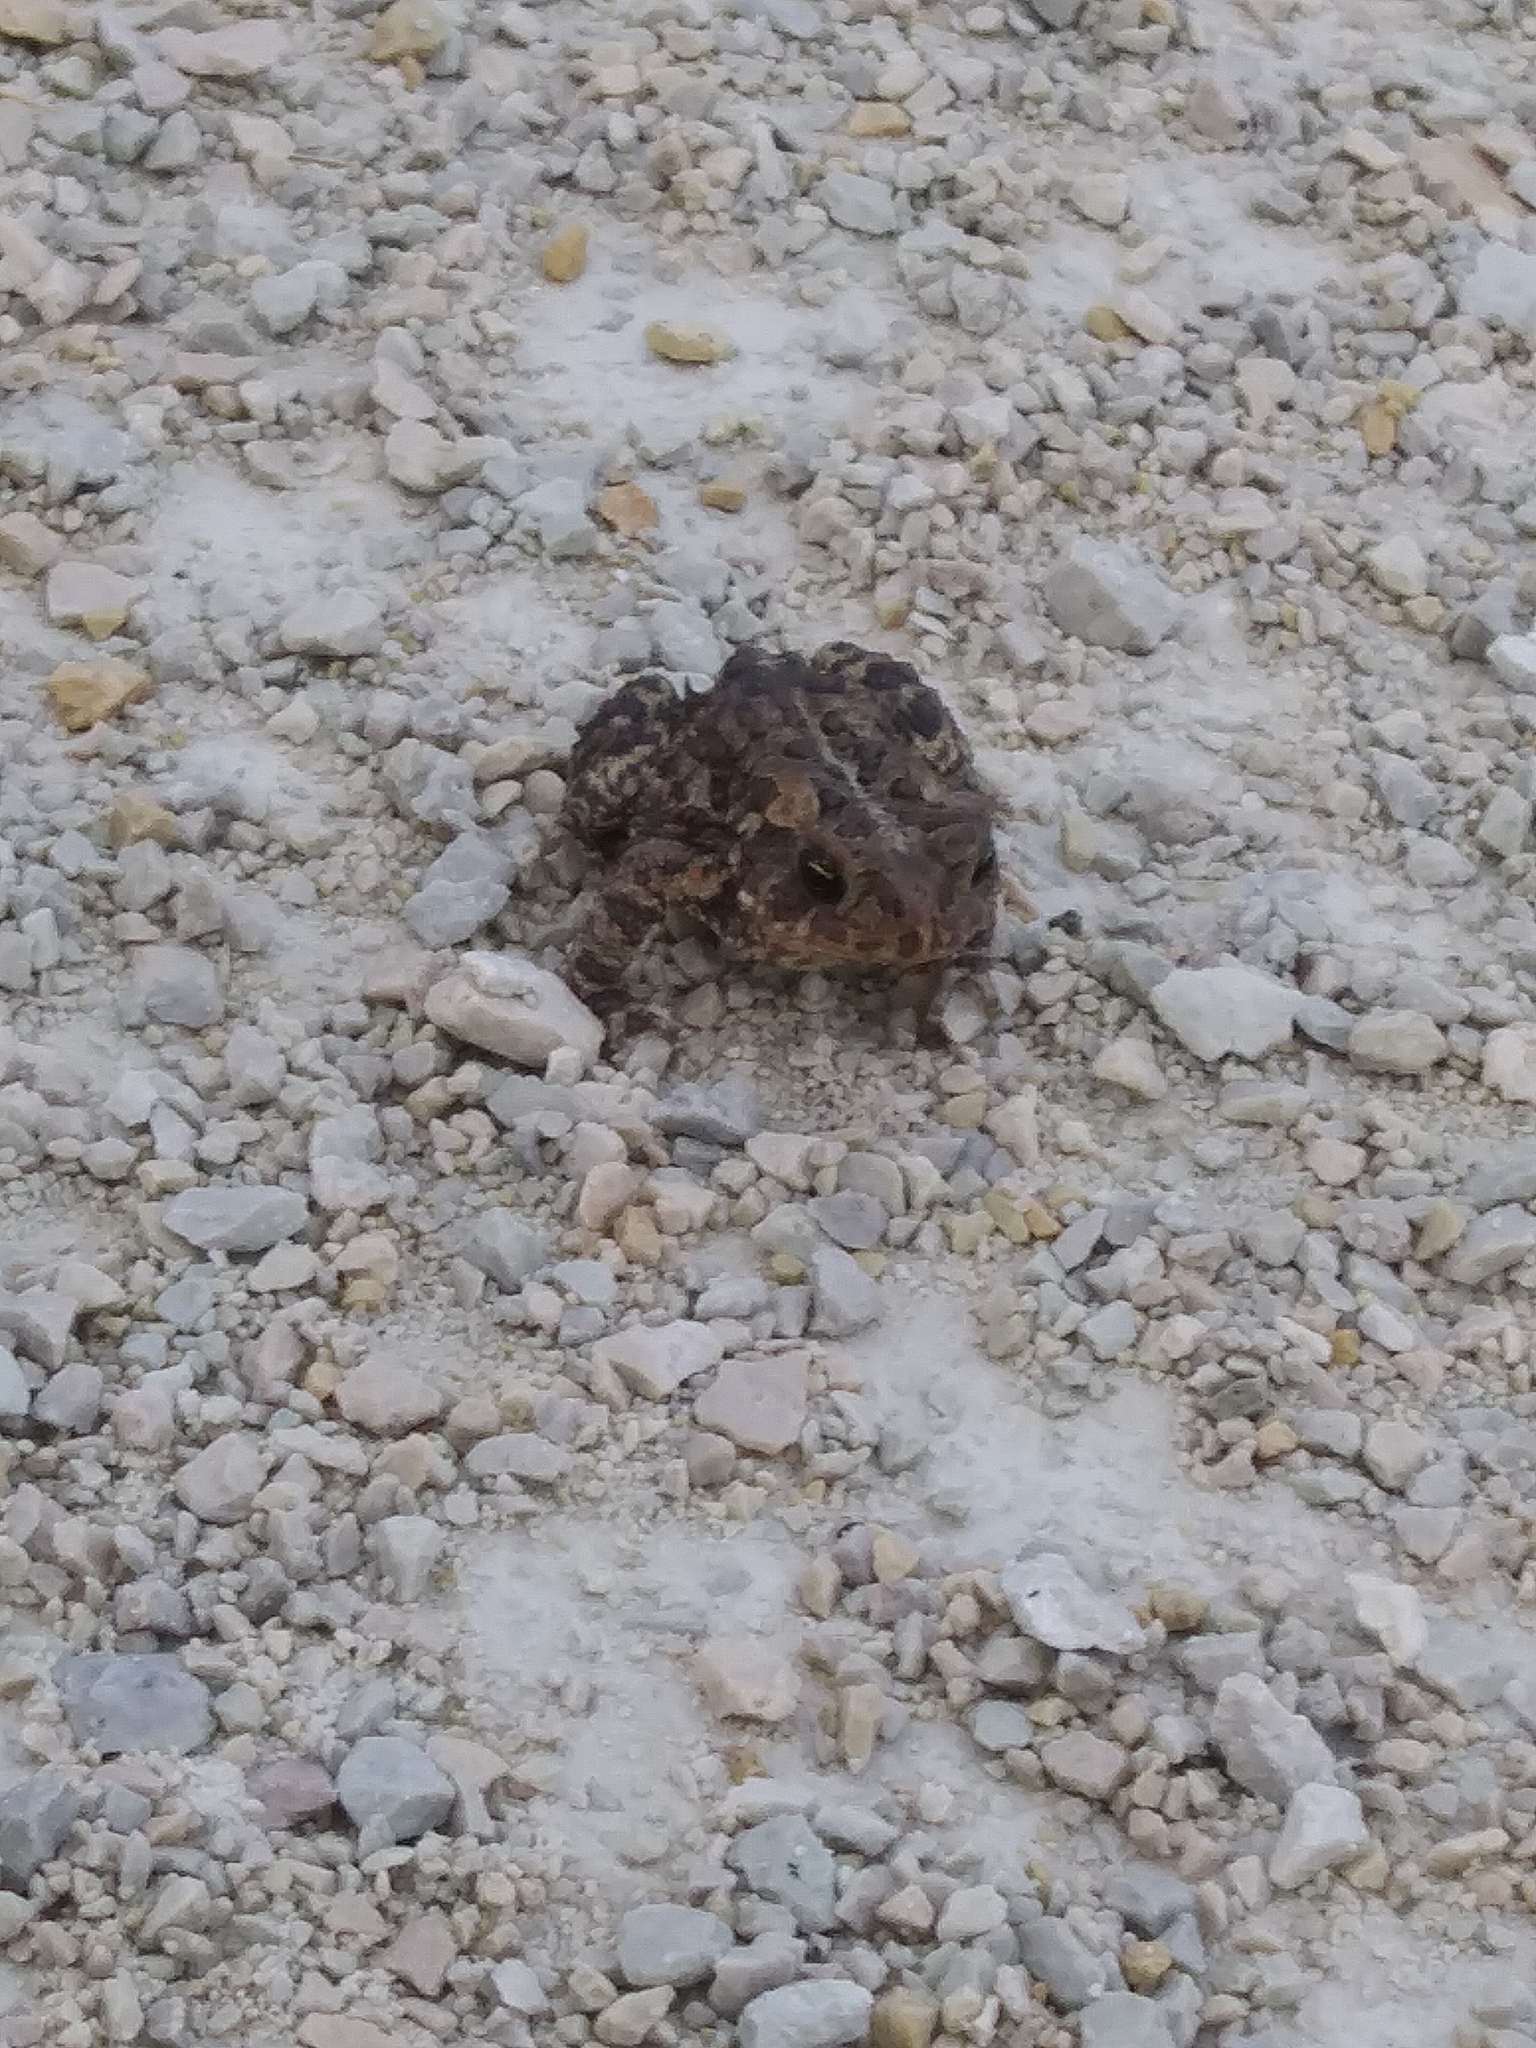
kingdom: Animalia
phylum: Chordata
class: Amphibia
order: Anura
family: Bufonidae
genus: Anaxyrus
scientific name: Anaxyrus americanus
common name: American toad
